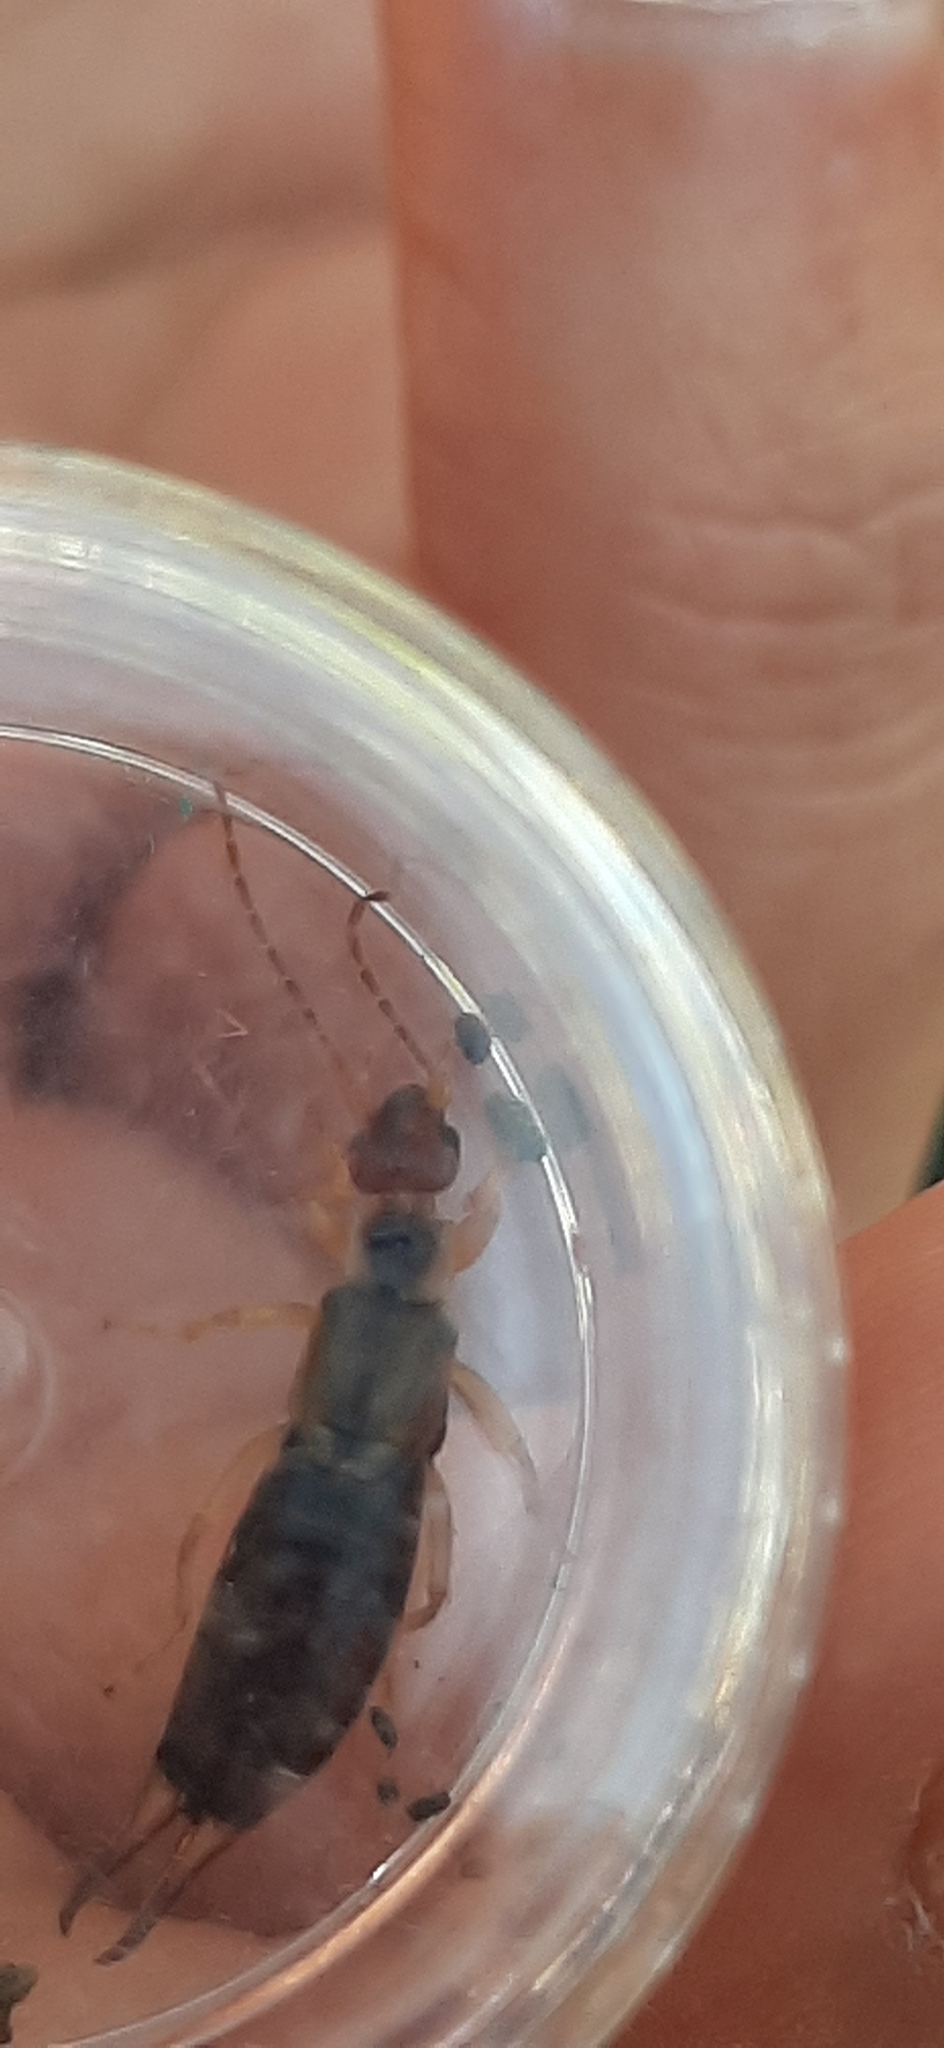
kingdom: Animalia
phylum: Arthropoda
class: Insecta
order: Dermaptera
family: Forficulidae
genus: Forficula
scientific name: Forficula
